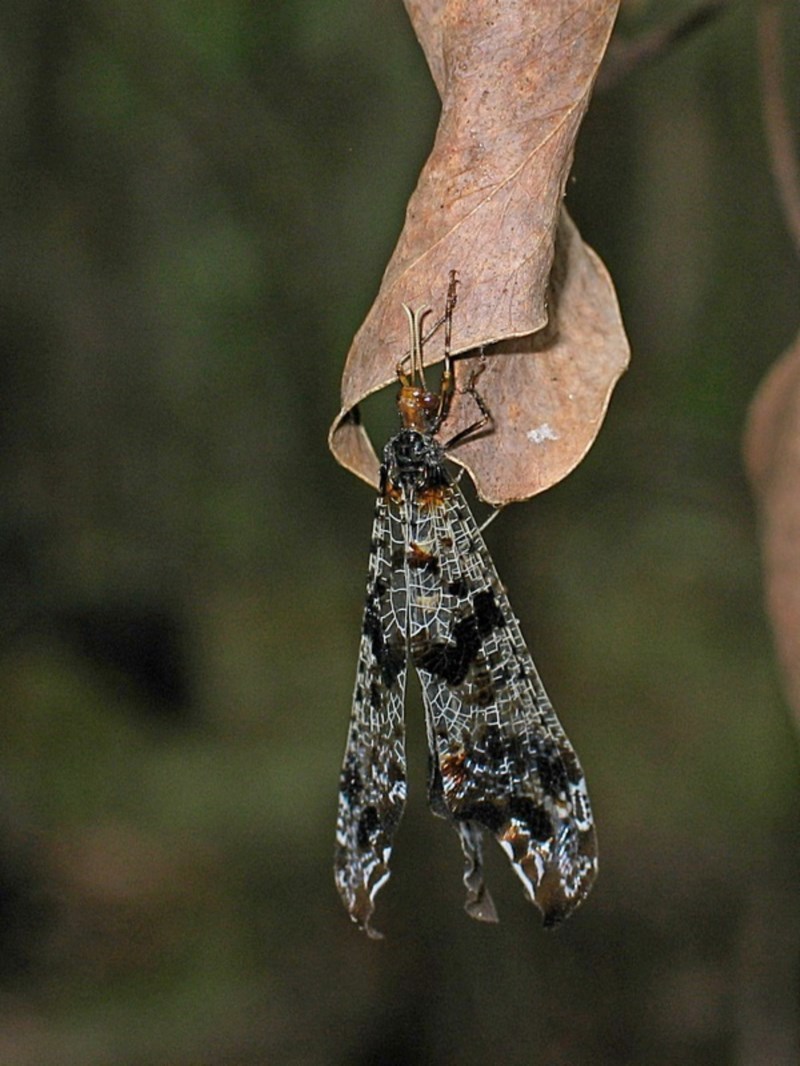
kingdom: Animalia
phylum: Arthropoda
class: Insecta
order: Neuroptera
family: Myrmeleontidae
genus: Periclystus
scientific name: Periclystus circuiter
